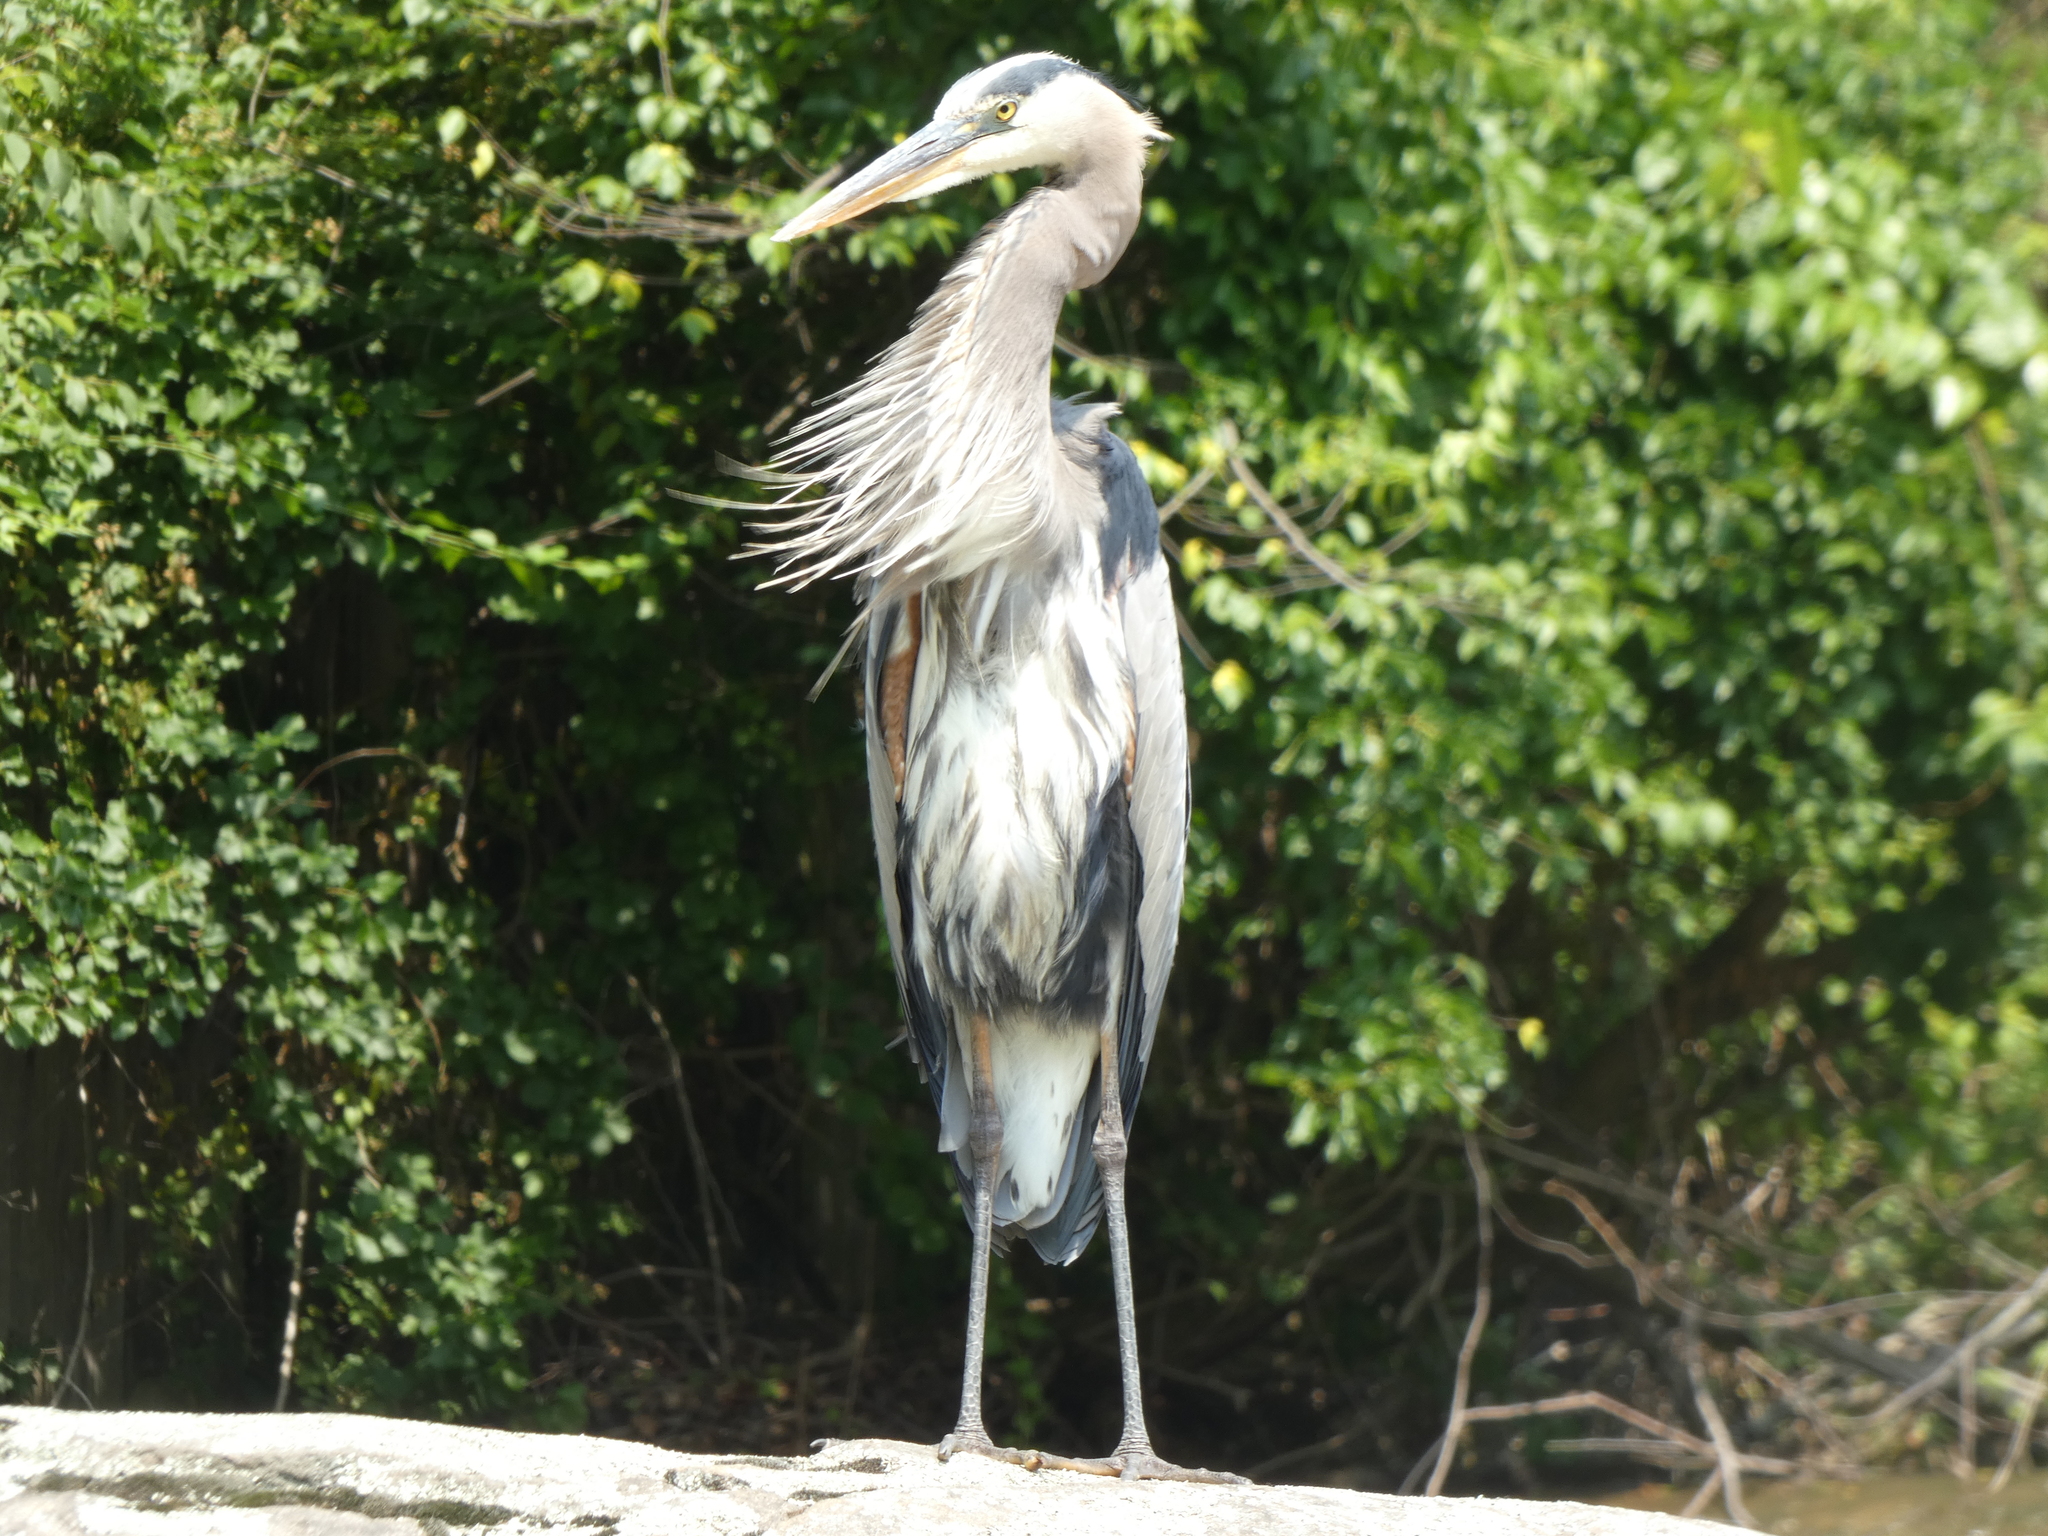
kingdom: Animalia
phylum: Chordata
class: Aves
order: Pelecaniformes
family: Ardeidae
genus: Ardea
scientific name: Ardea herodias
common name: Great blue heron
